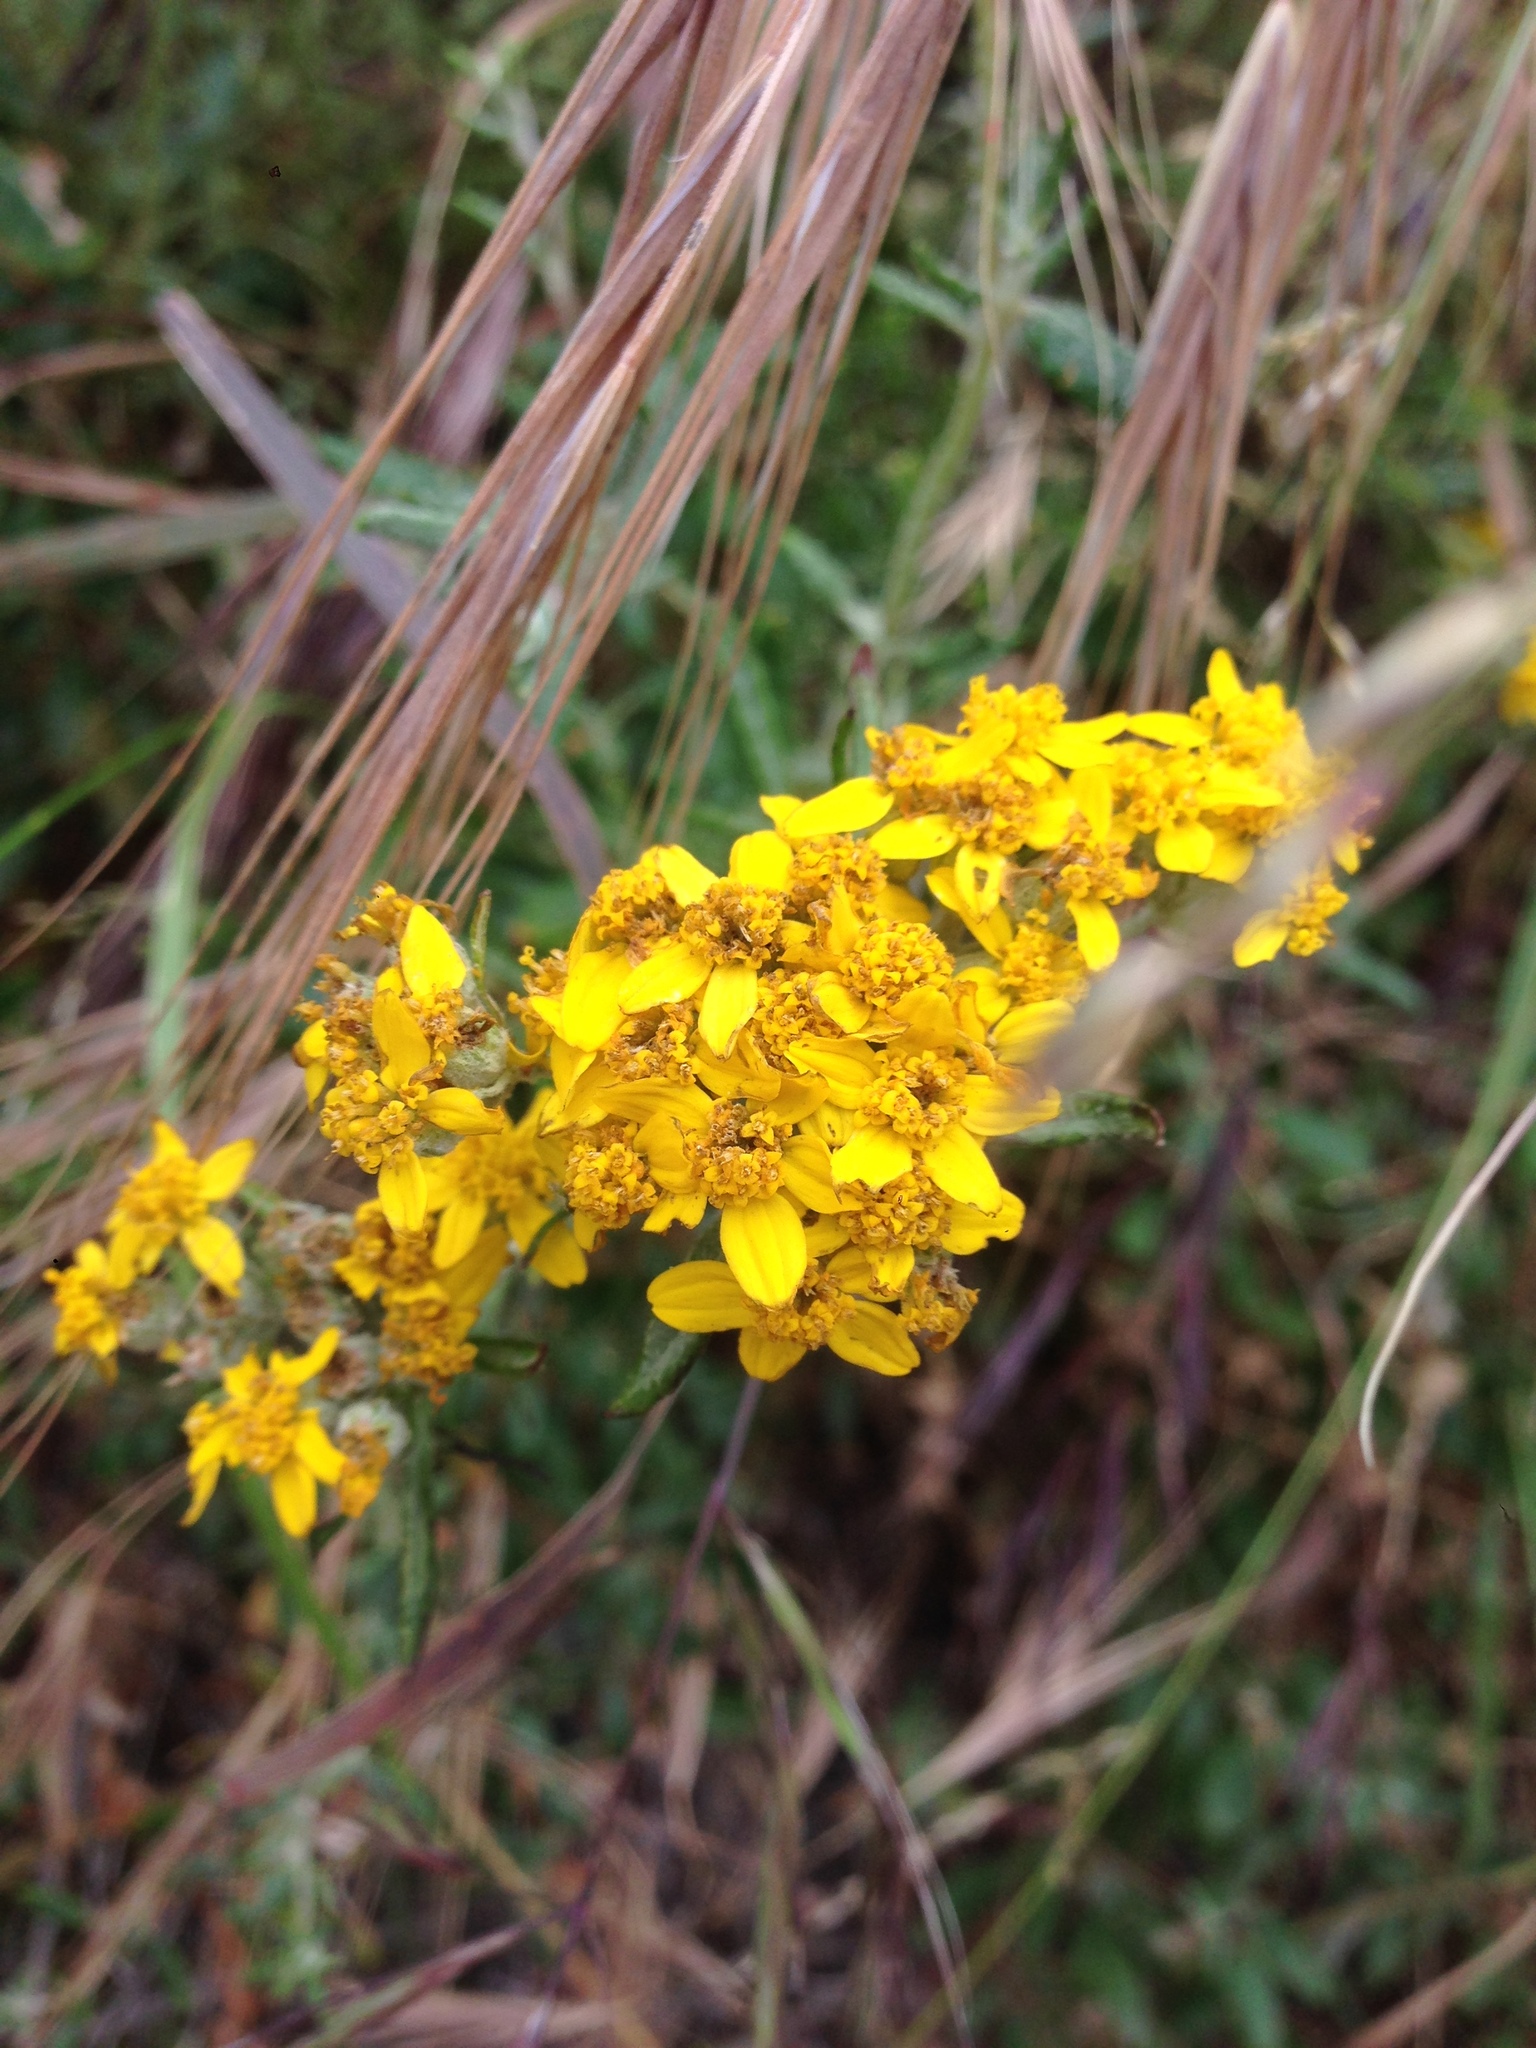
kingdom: Plantae
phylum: Tracheophyta
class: Magnoliopsida
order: Asterales
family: Asteraceae
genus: Eriophyllum
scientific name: Eriophyllum confertiflorum
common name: Golden-yarrow
